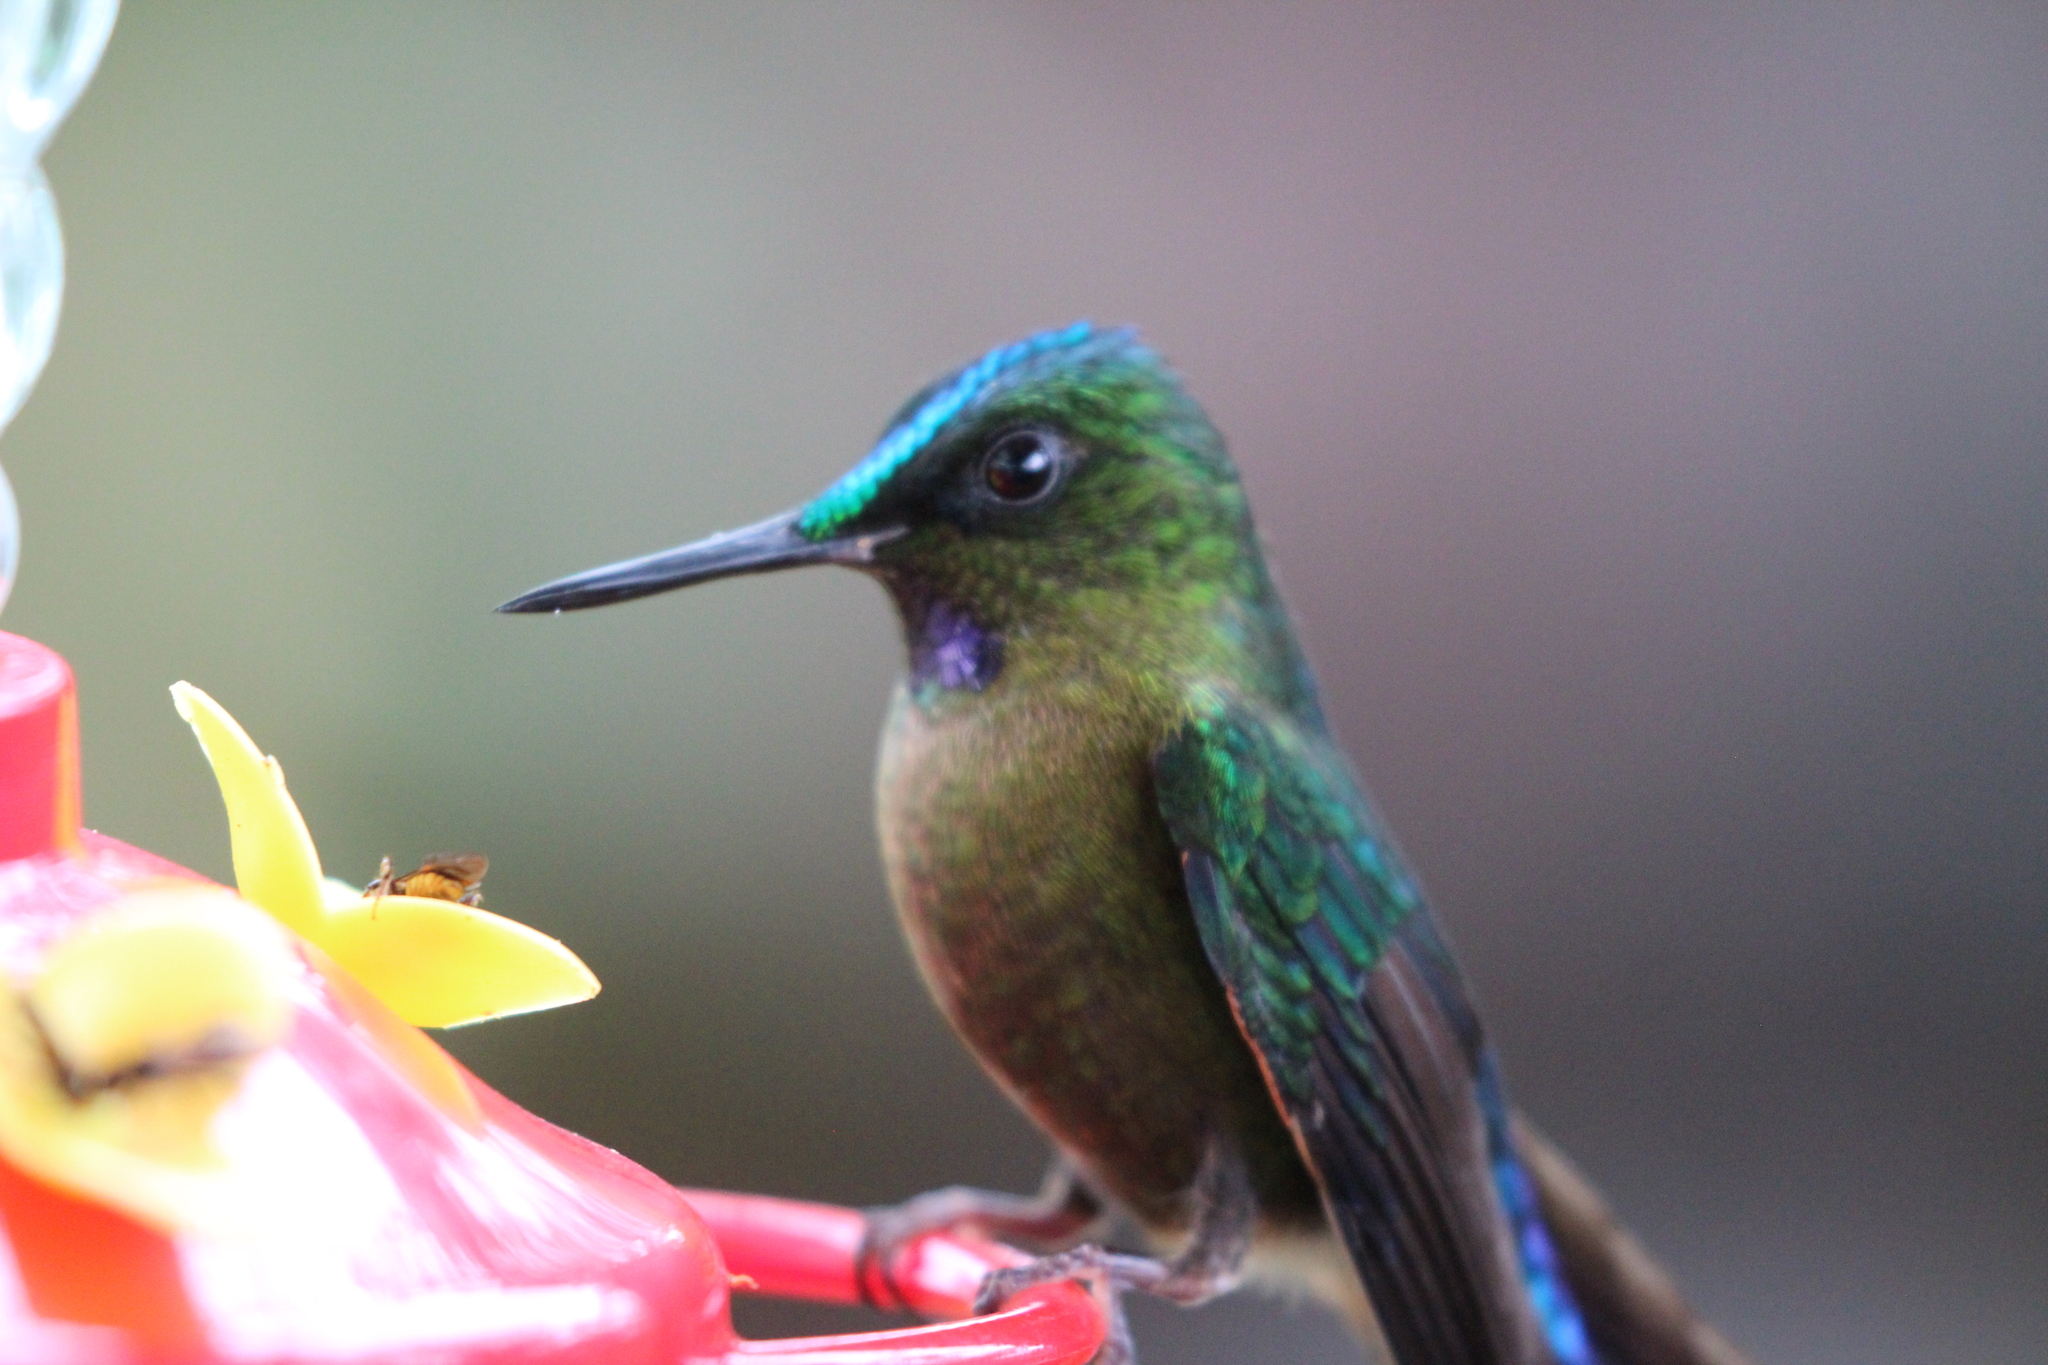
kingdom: Animalia
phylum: Chordata
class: Aves
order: Apodiformes
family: Trochilidae
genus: Aglaiocercus
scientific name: Aglaiocercus coelestis
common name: Violet-tailed sylph
